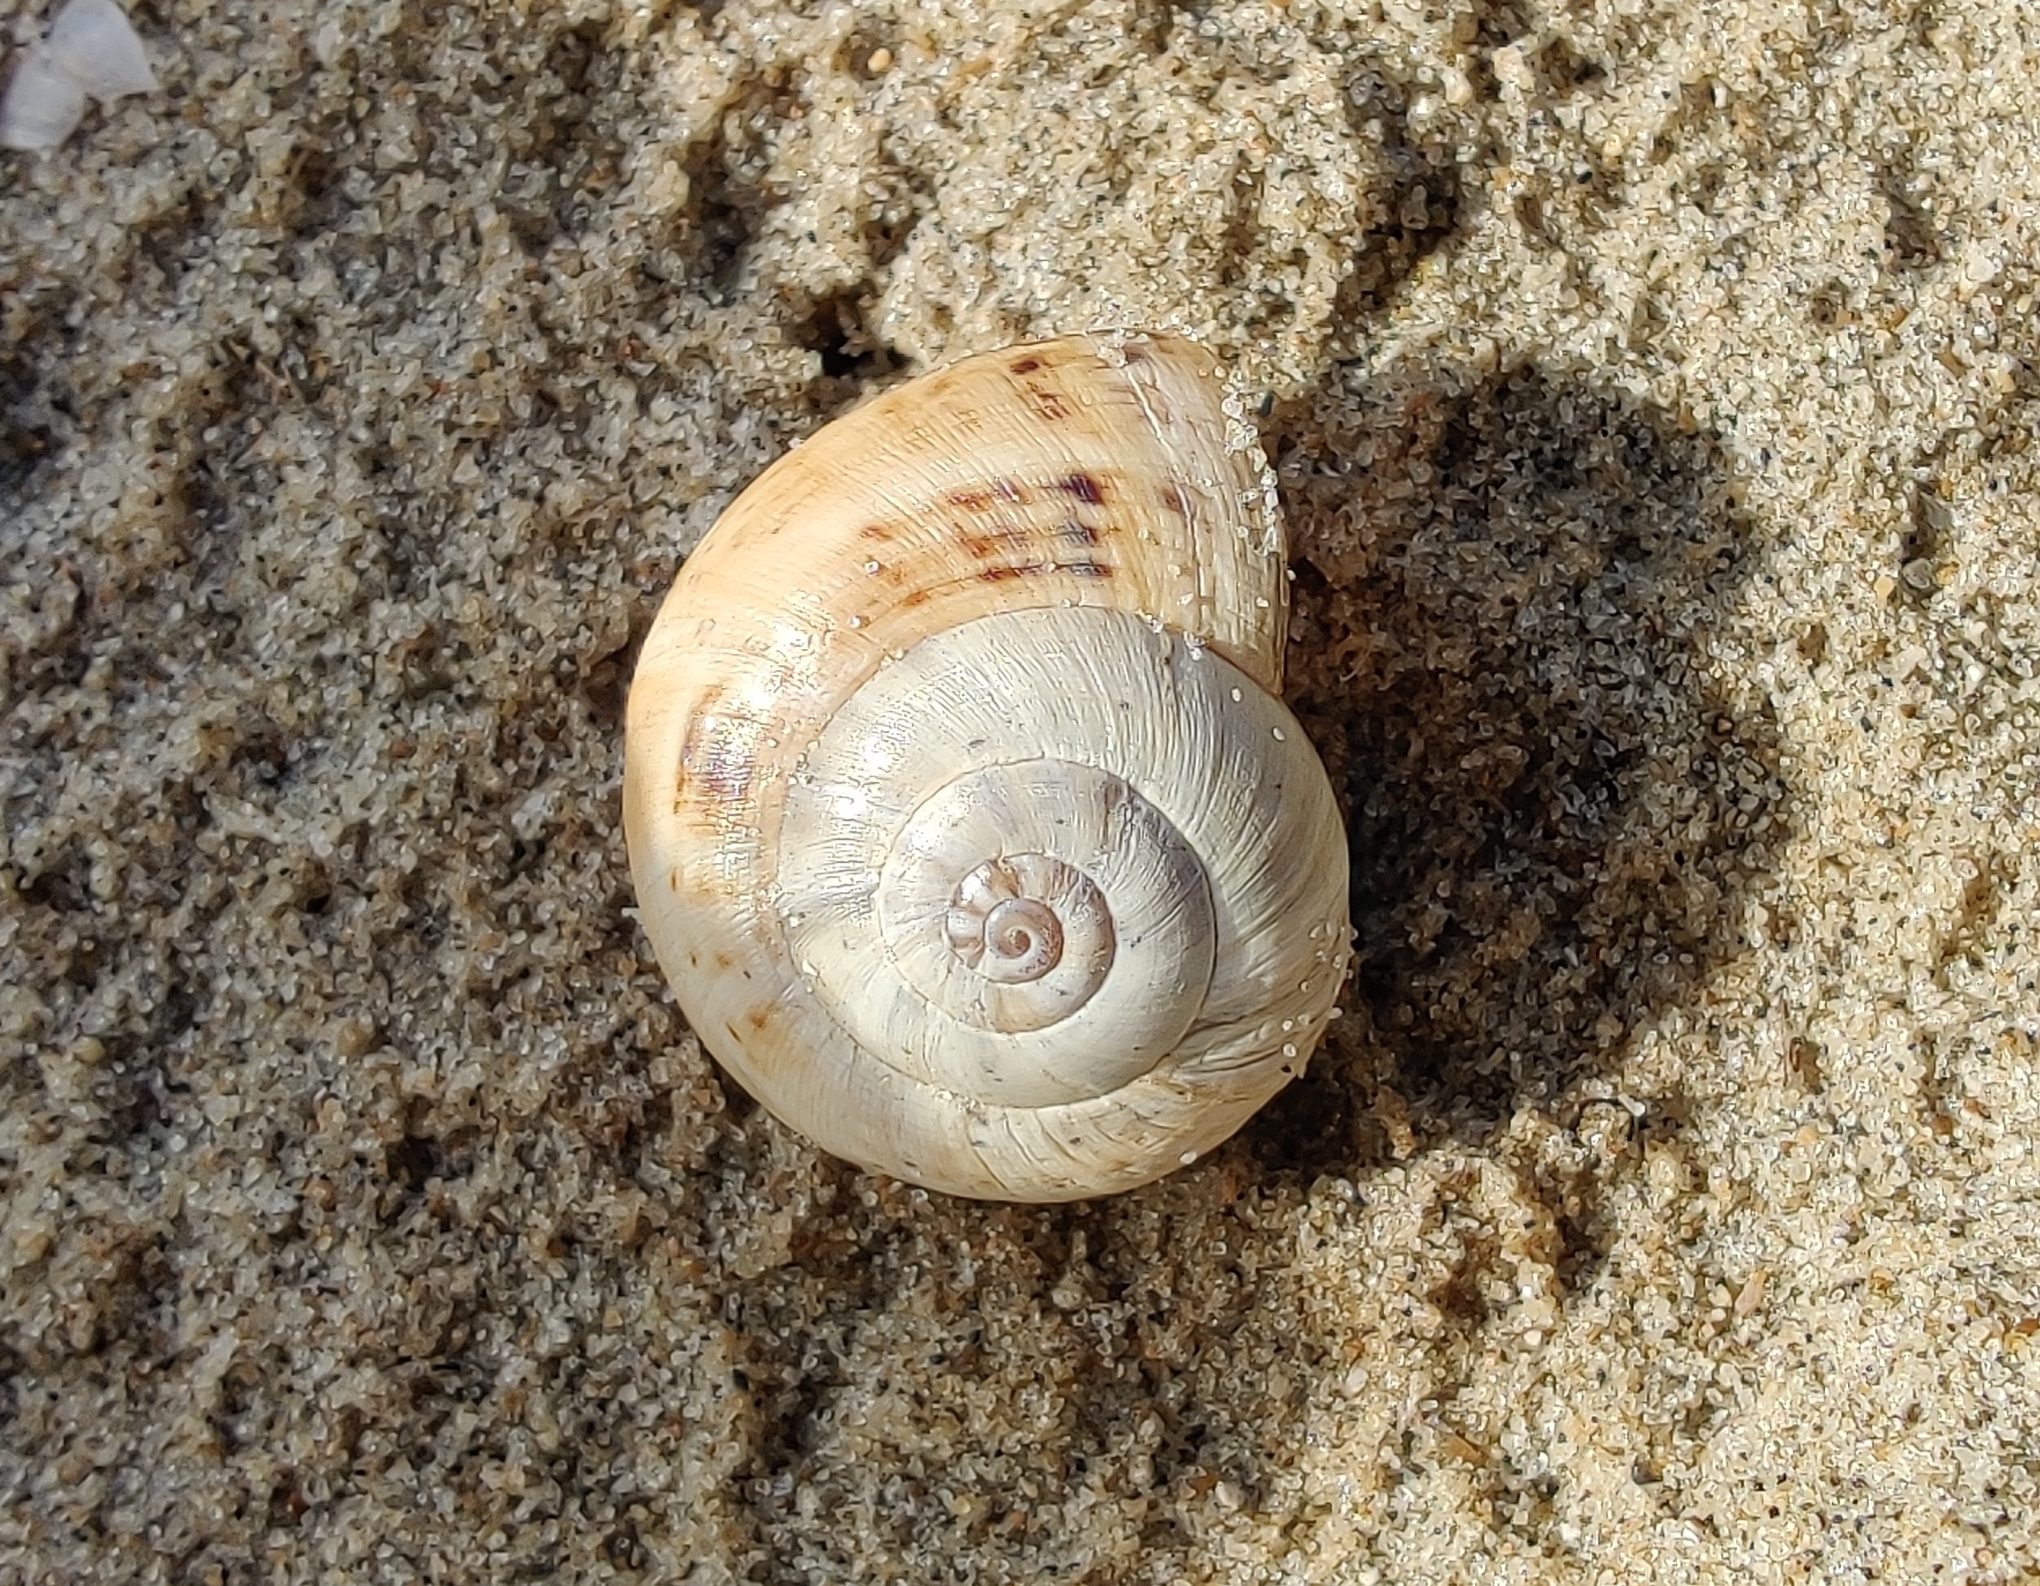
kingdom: Animalia
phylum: Mollusca
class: Gastropoda
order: Stylommatophora
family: Helicidae
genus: Theba
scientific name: Theba pisana
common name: White snail
